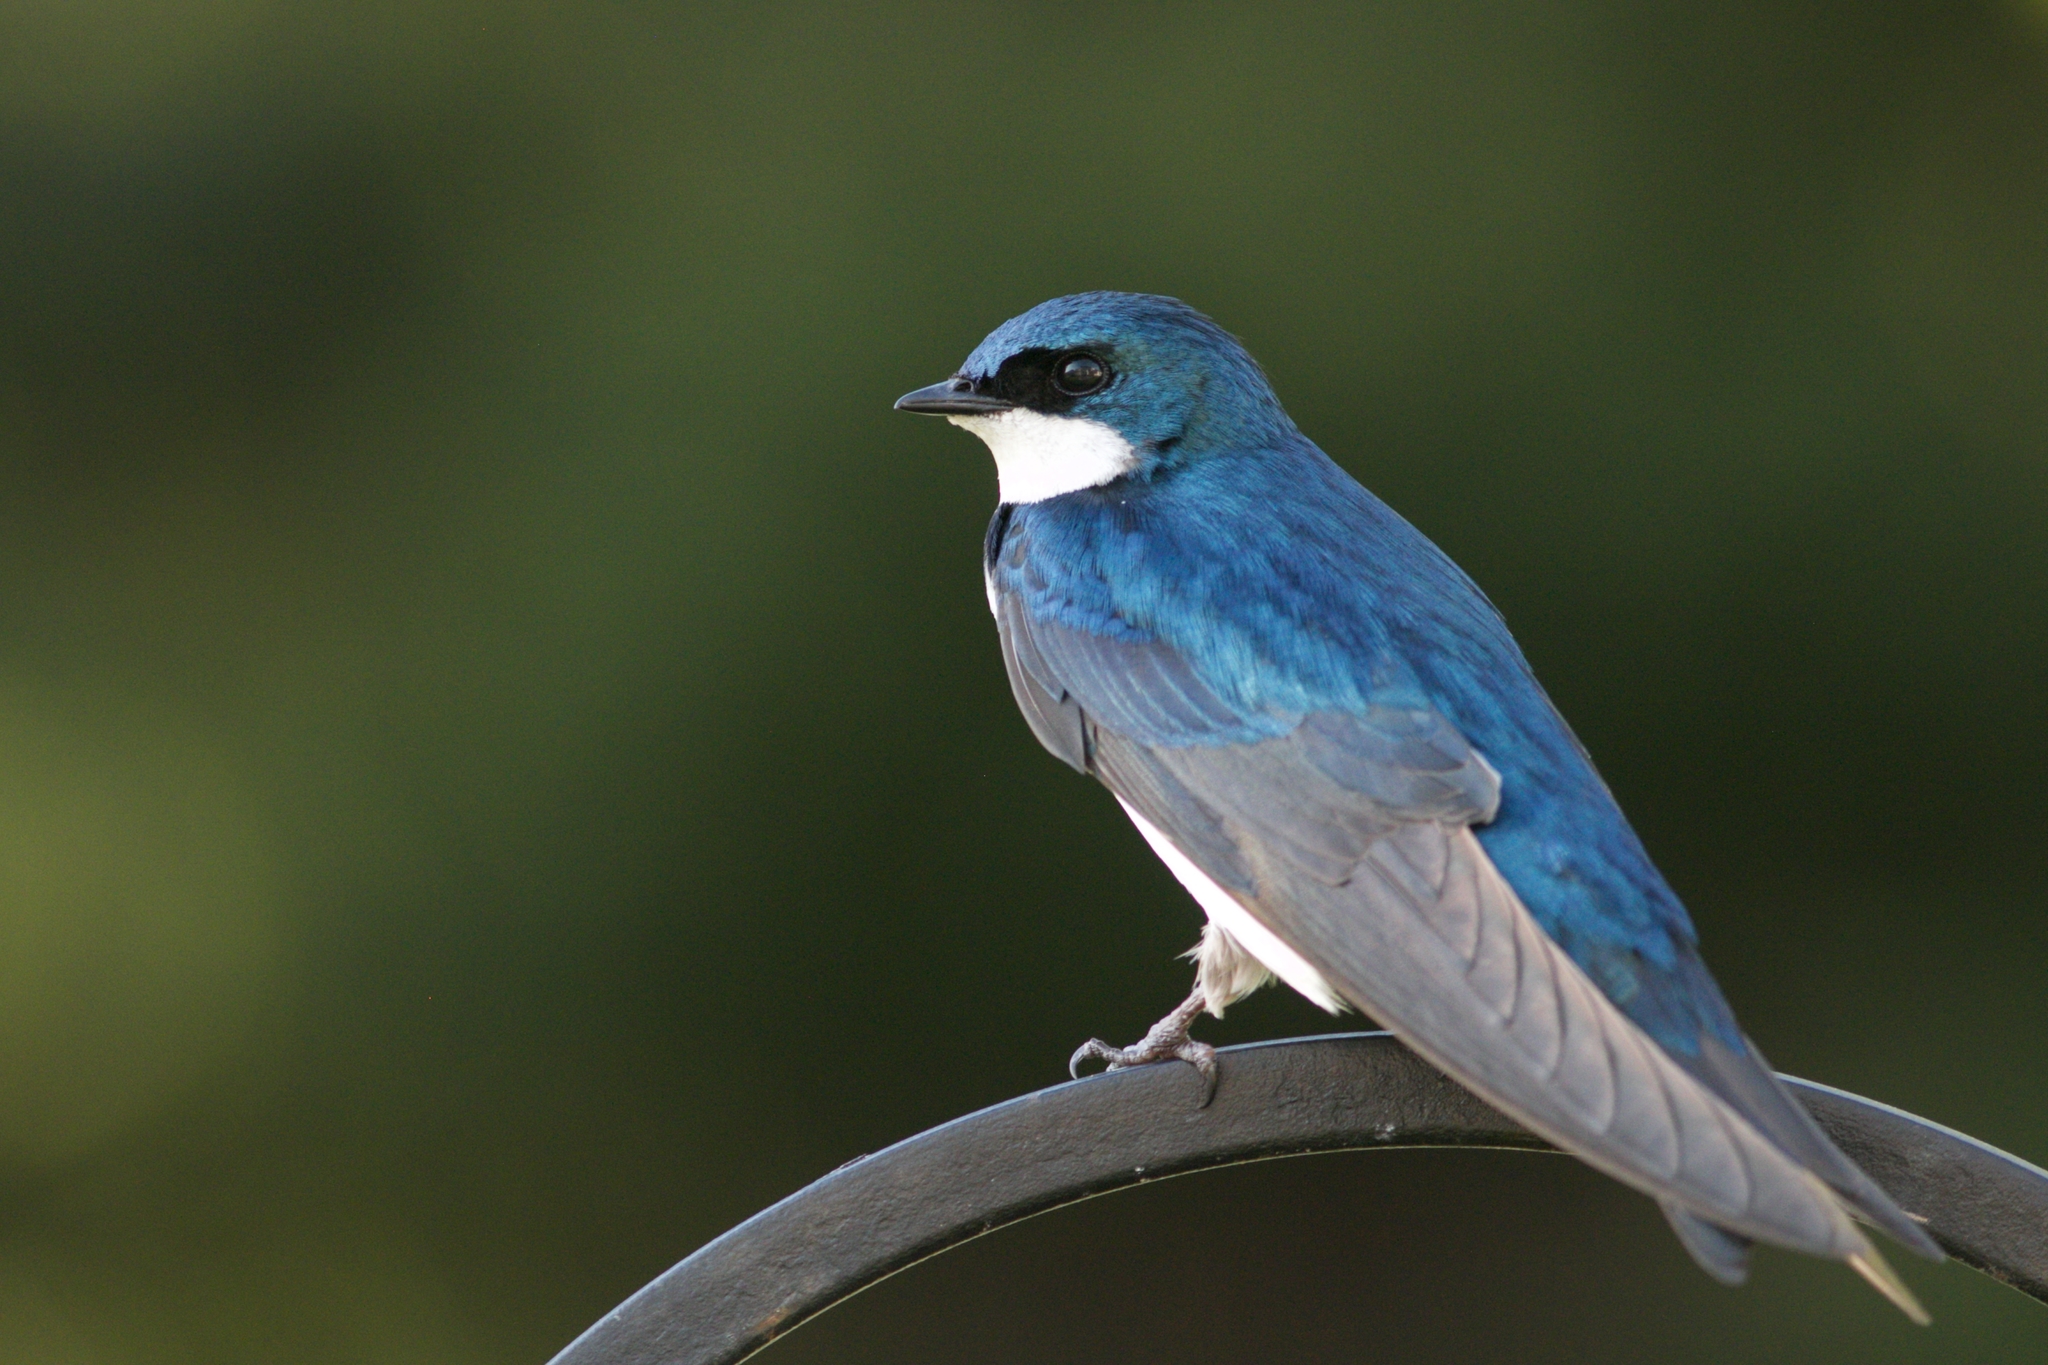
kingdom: Animalia
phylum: Chordata
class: Aves
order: Passeriformes
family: Hirundinidae
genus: Tachycineta
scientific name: Tachycineta bicolor
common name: Tree swallow
